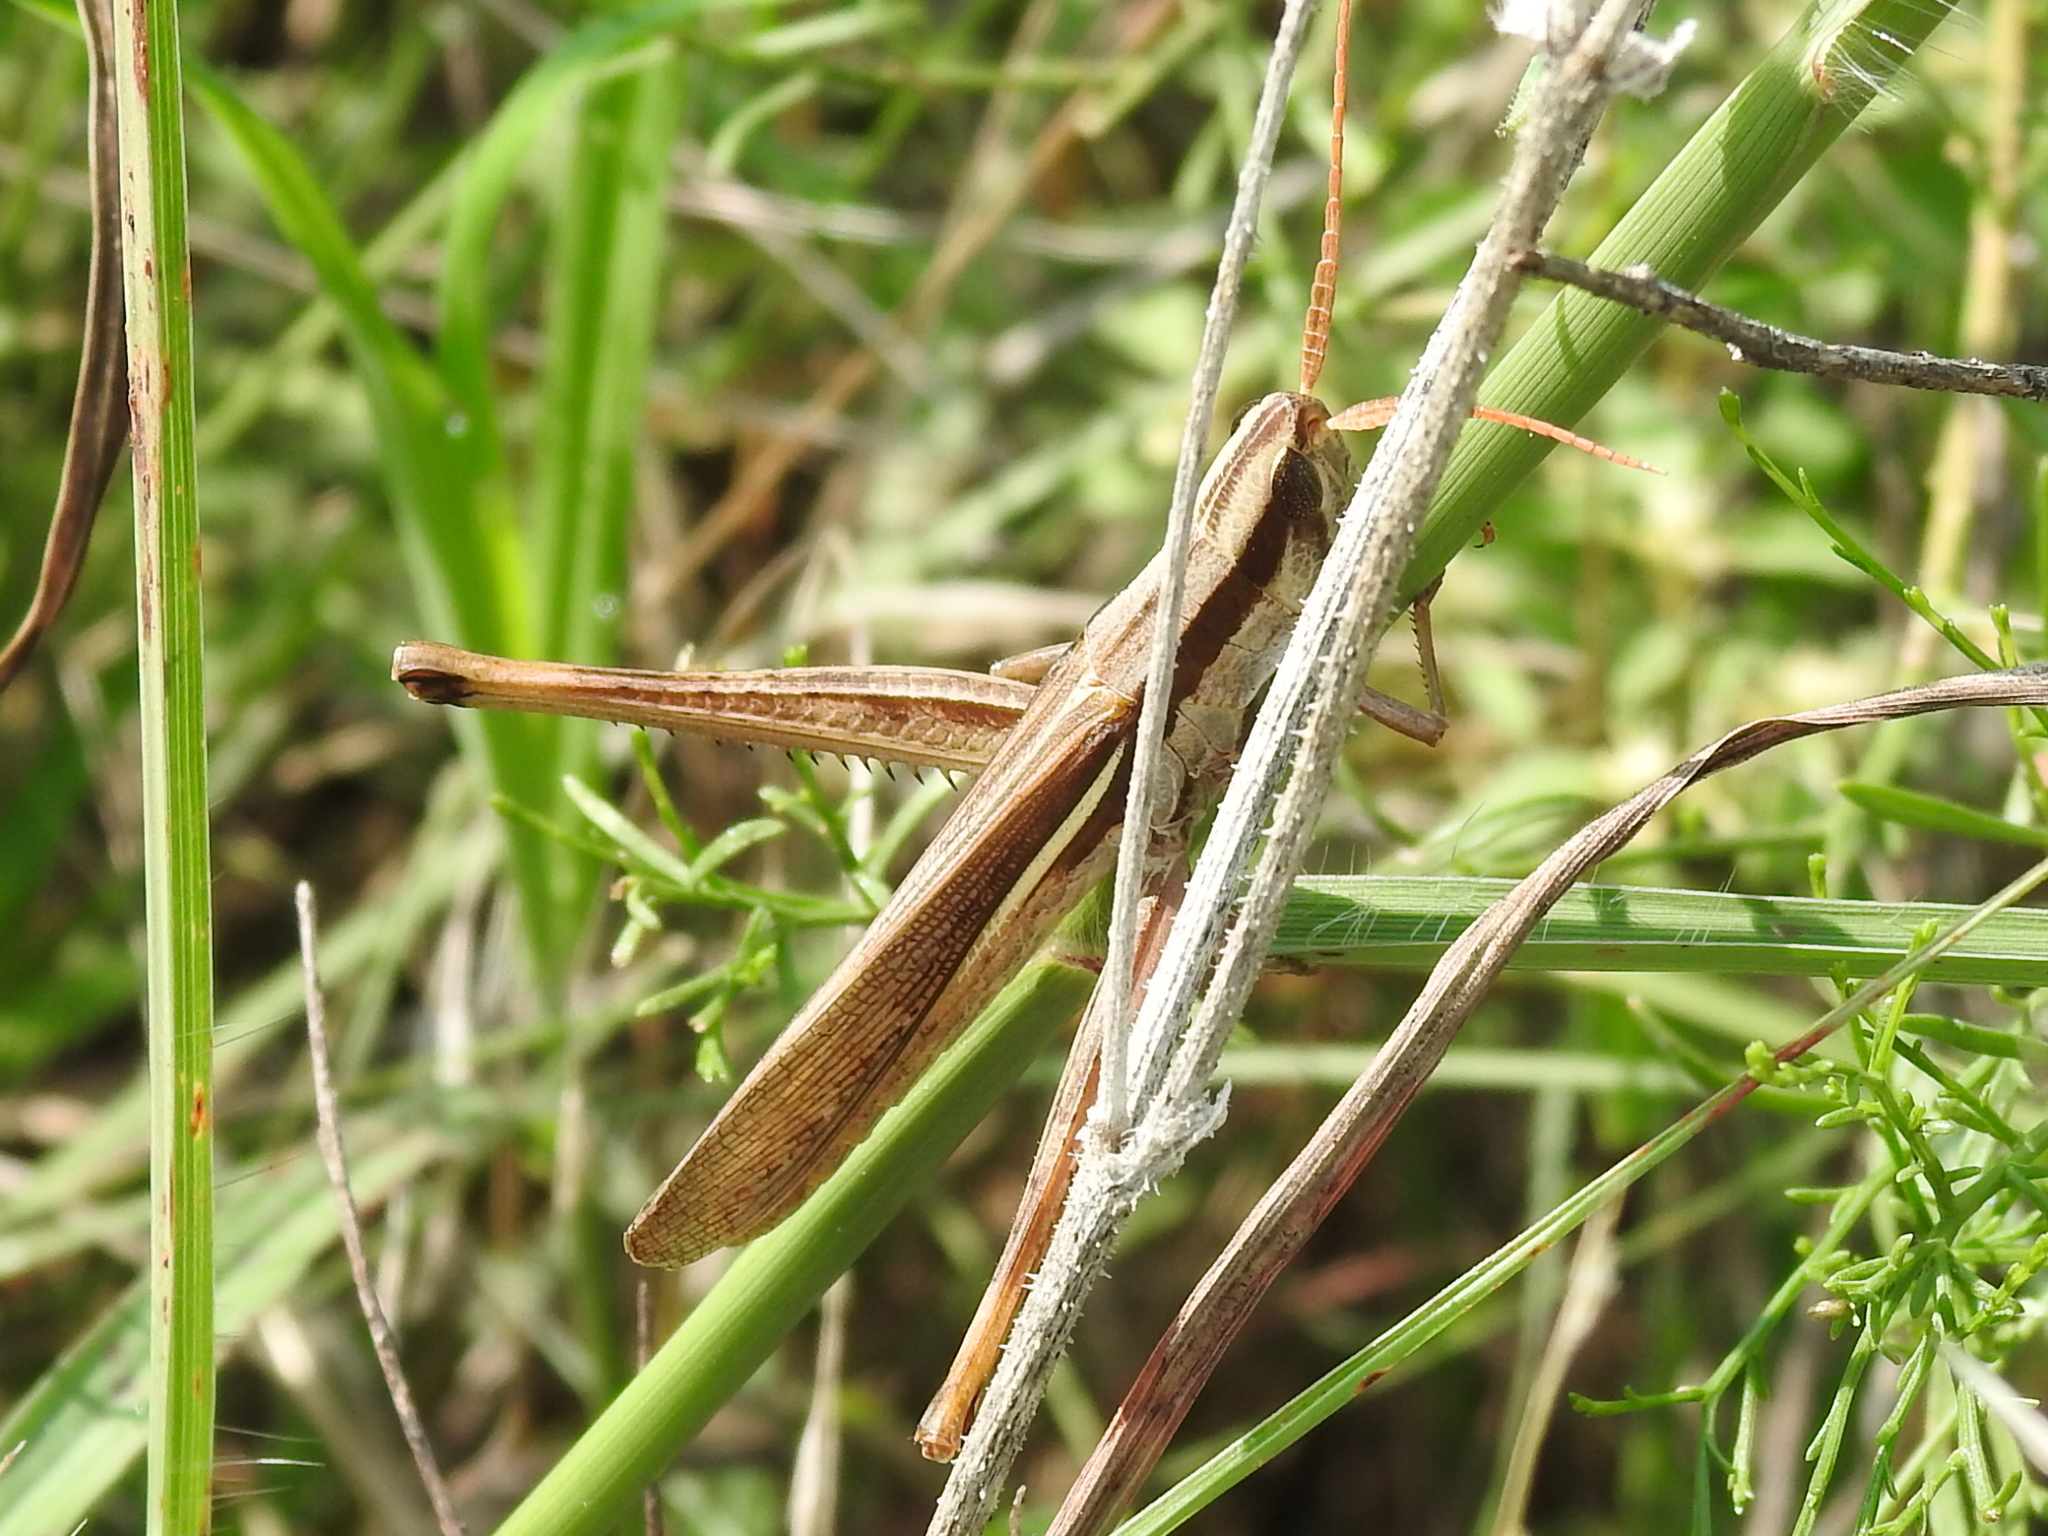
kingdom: Animalia
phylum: Arthropoda
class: Insecta
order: Orthoptera
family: Acrididae
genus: Mermiria
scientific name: Mermiria bivittata
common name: Two-striped mermiria grasshopper
